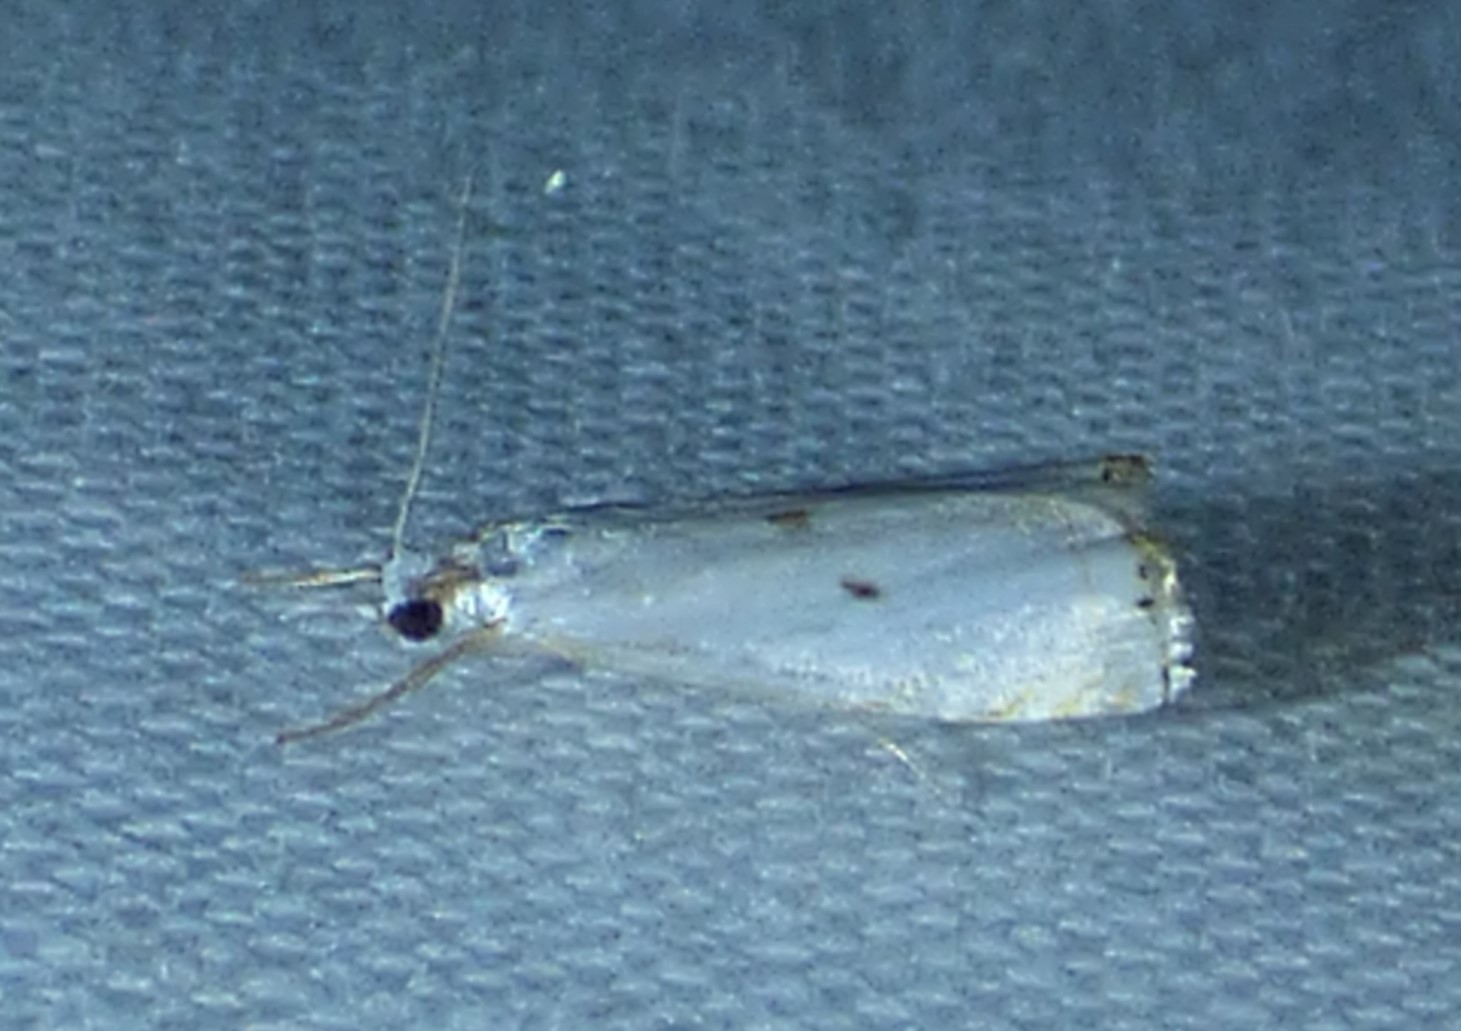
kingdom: Animalia
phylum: Arthropoda
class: Insecta
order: Lepidoptera
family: Crambidae
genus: Microcrambus
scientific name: Microcrambus biguttellus
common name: Gold-stripe grass-veneer moth
